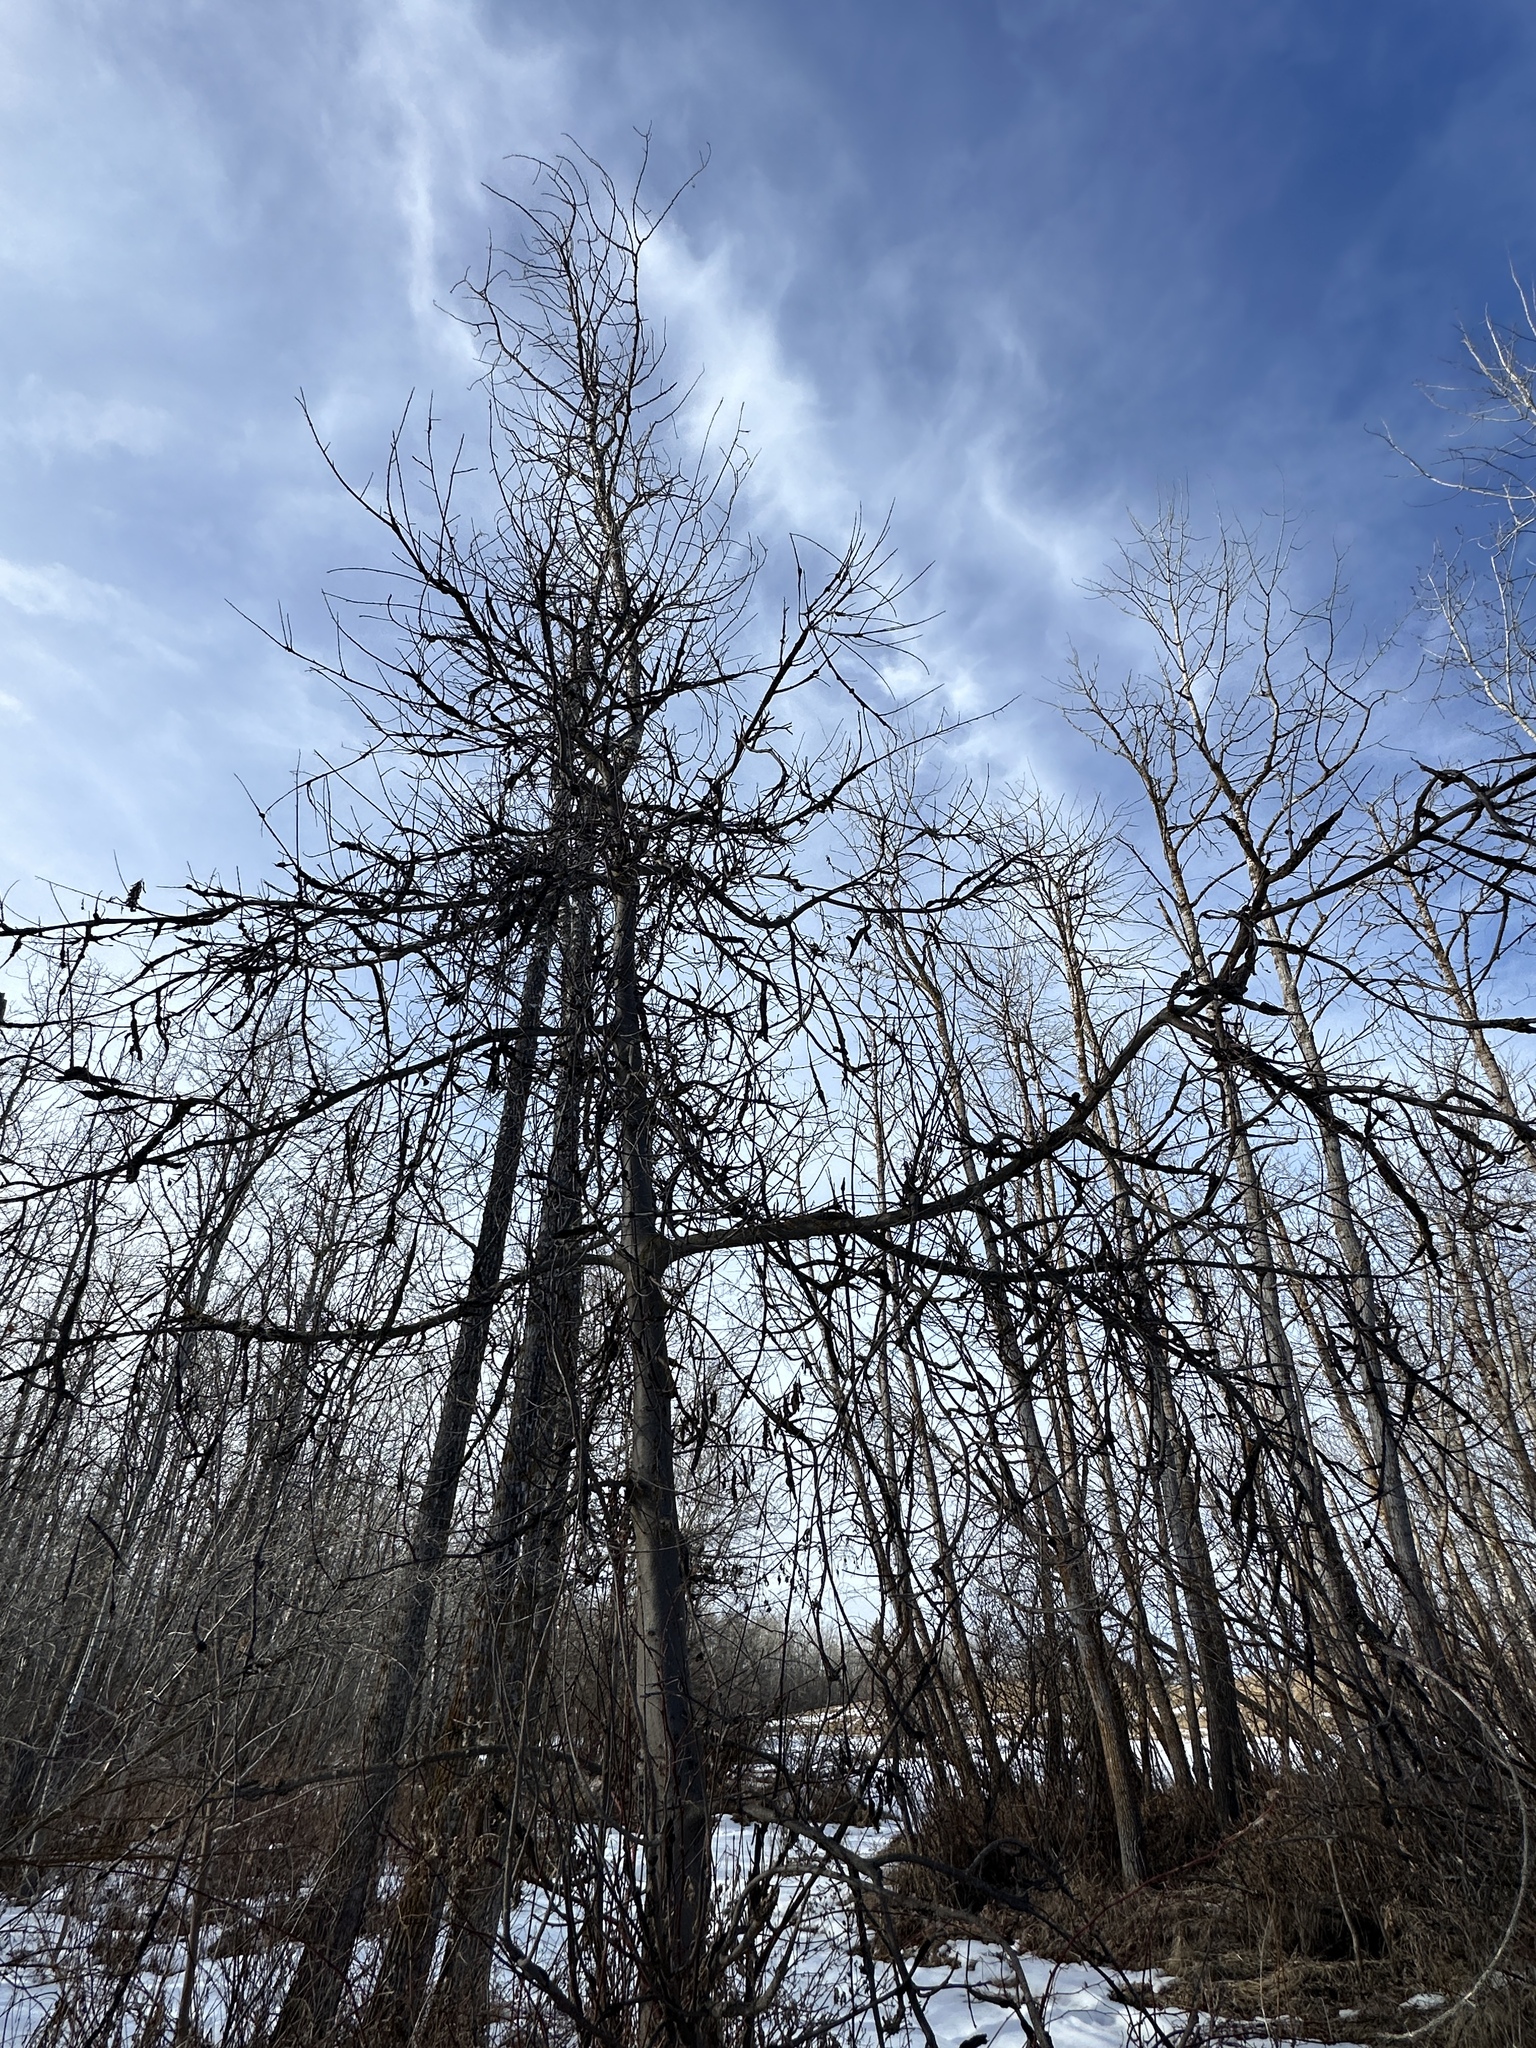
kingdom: Fungi
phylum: Ascomycota
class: Dothideomycetes
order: Venturiales
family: Venturiaceae
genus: Apiosporina
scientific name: Apiosporina morbosa
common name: Black knot
